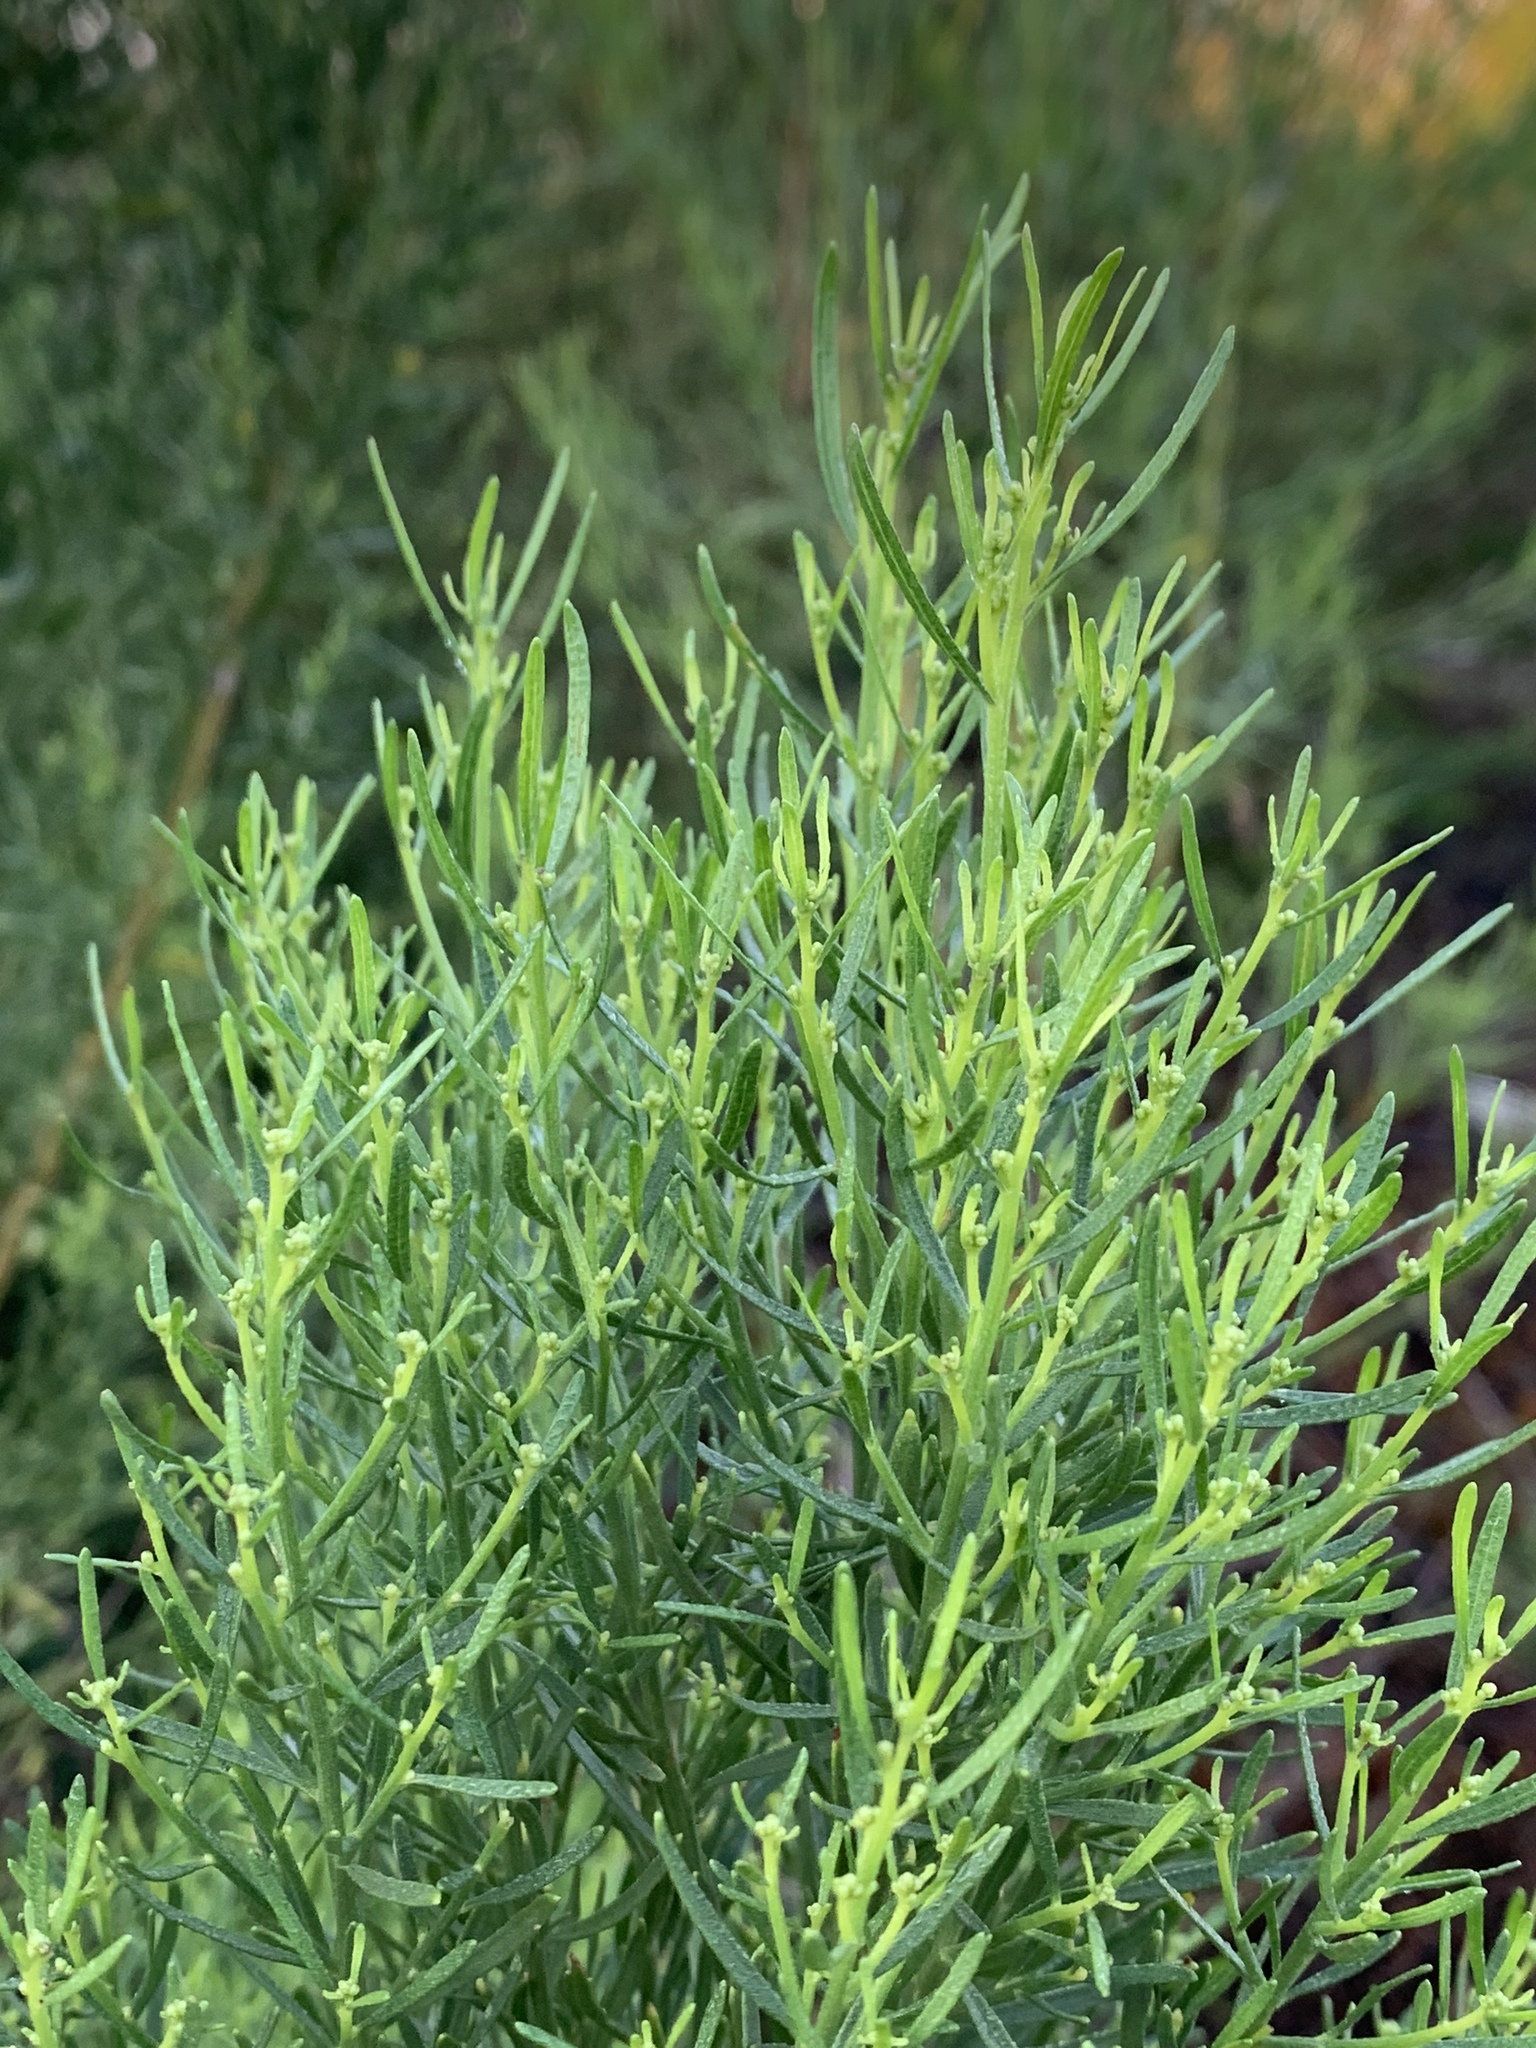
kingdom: Plantae
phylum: Tracheophyta
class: Magnoliopsida
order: Asterales
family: Asteraceae
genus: Baccharis
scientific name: Baccharis neglecta
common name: Roosevelt-weed
